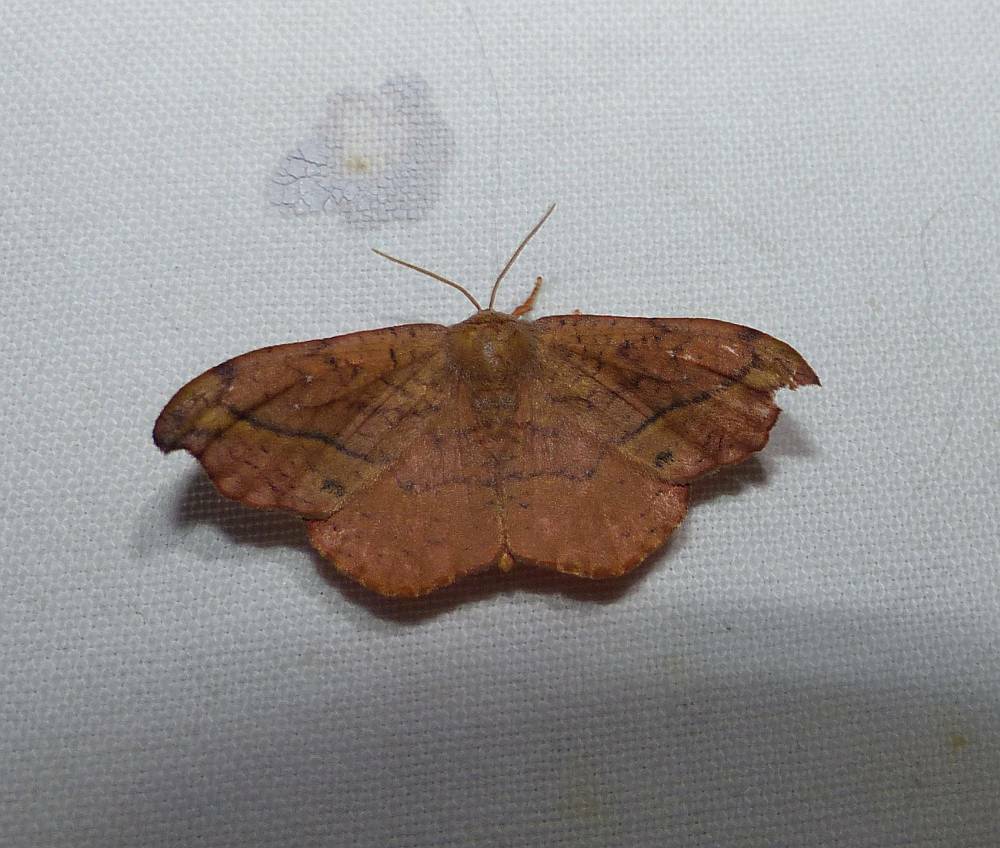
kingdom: Animalia
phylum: Arthropoda
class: Insecta
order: Lepidoptera
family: Drepanidae
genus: Oreta
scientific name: Oreta rosea
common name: Rose hooktip
